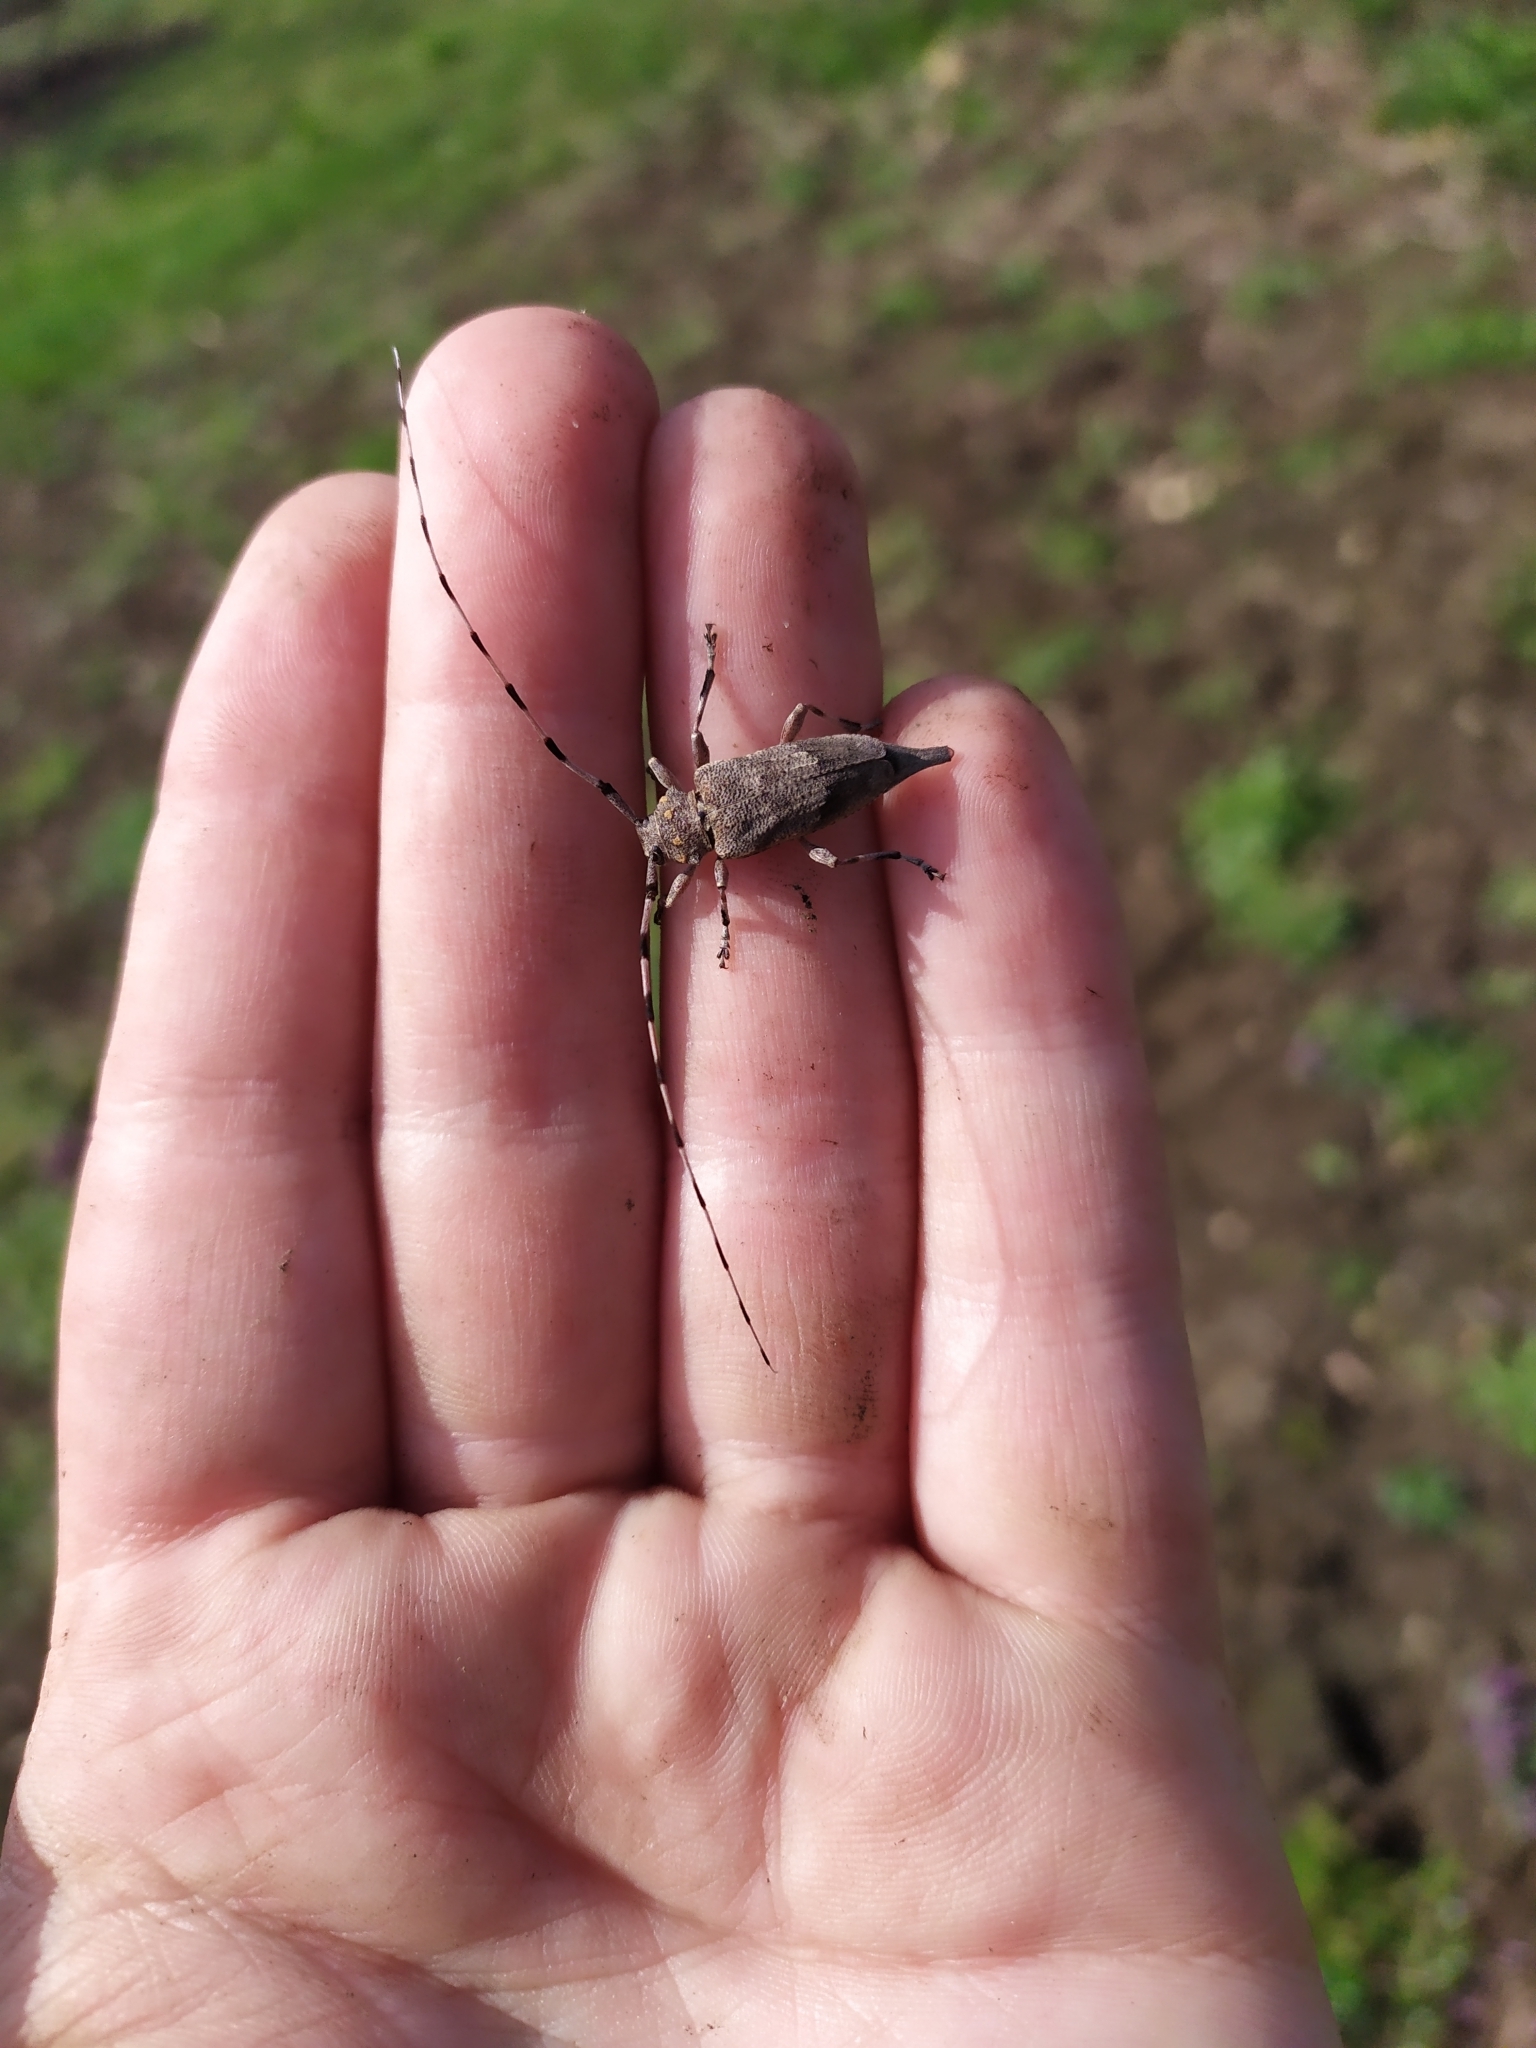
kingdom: Animalia
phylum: Arthropoda
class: Insecta
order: Coleoptera
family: Cerambycidae
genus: Acanthocinus
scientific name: Acanthocinus aedilis
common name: Timberman beetle
